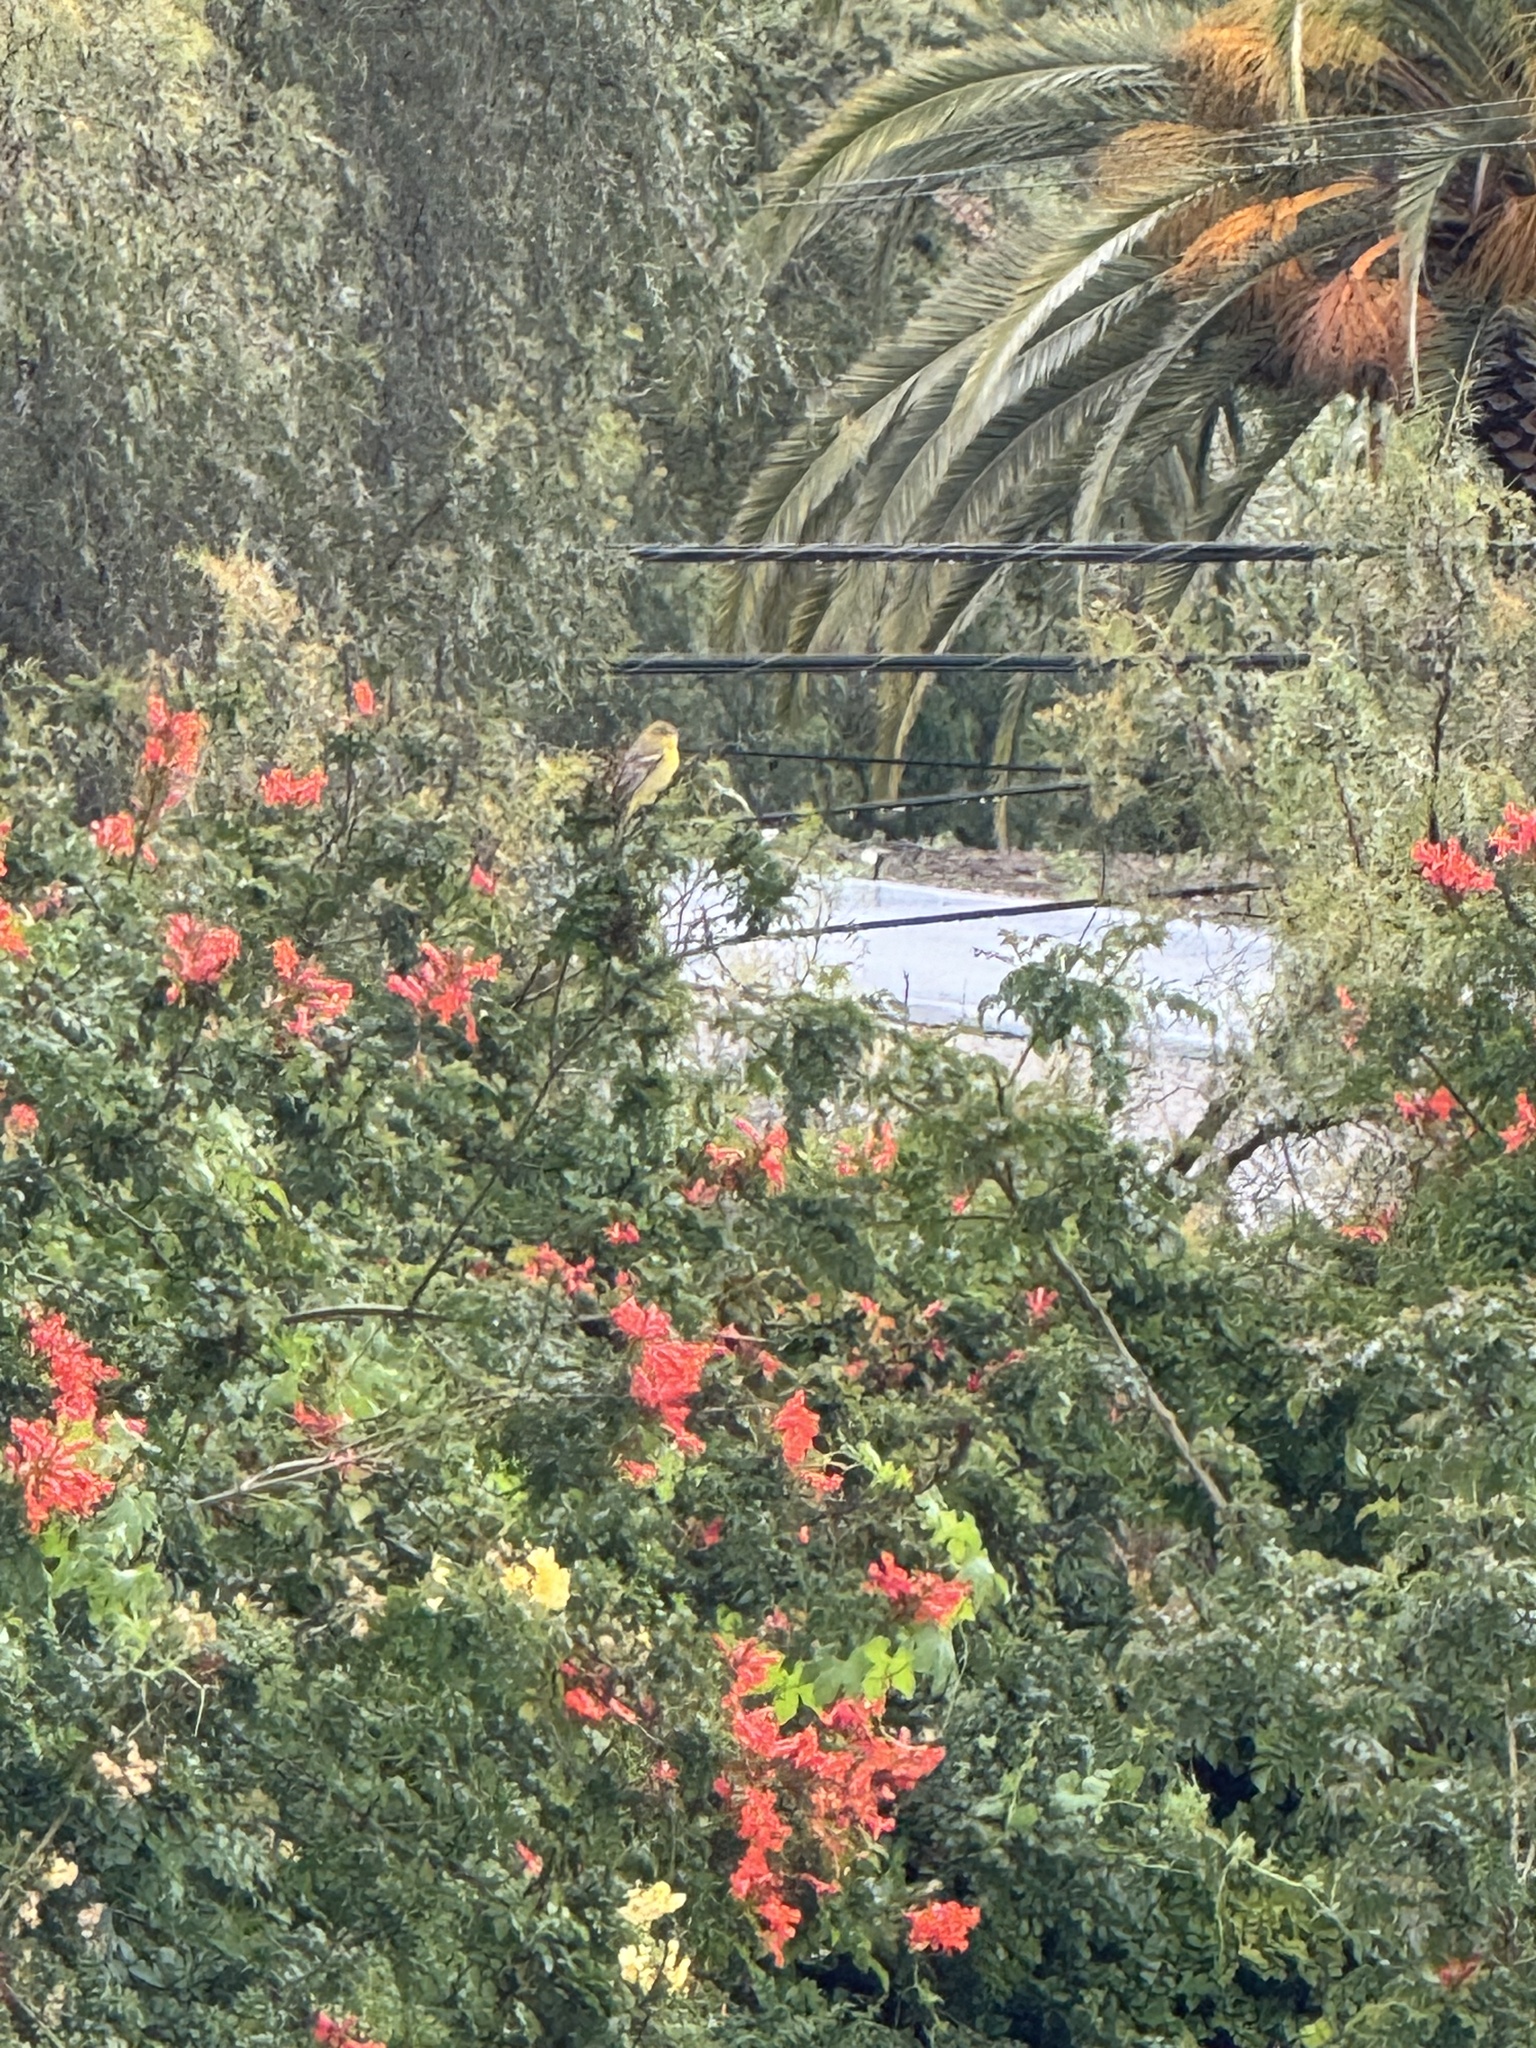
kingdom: Animalia
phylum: Chordata
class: Aves
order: Passeriformes
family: Icteridae
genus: Icterus
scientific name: Icterus cucullatus
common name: Hooded oriole
